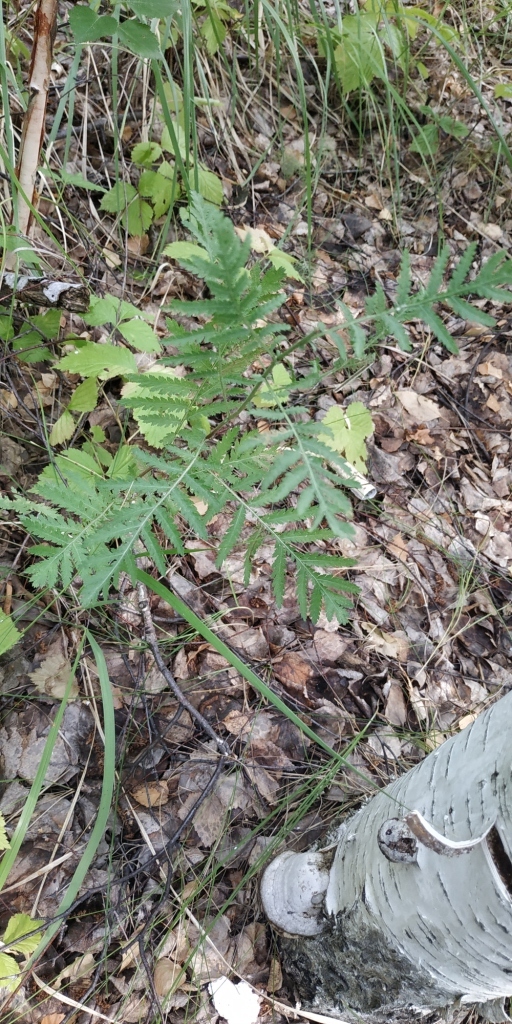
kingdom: Plantae
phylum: Tracheophyta
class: Magnoliopsida
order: Asterales
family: Asteraceae
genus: Tanacetum
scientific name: Tanacetum vulgare
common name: Common tansy
